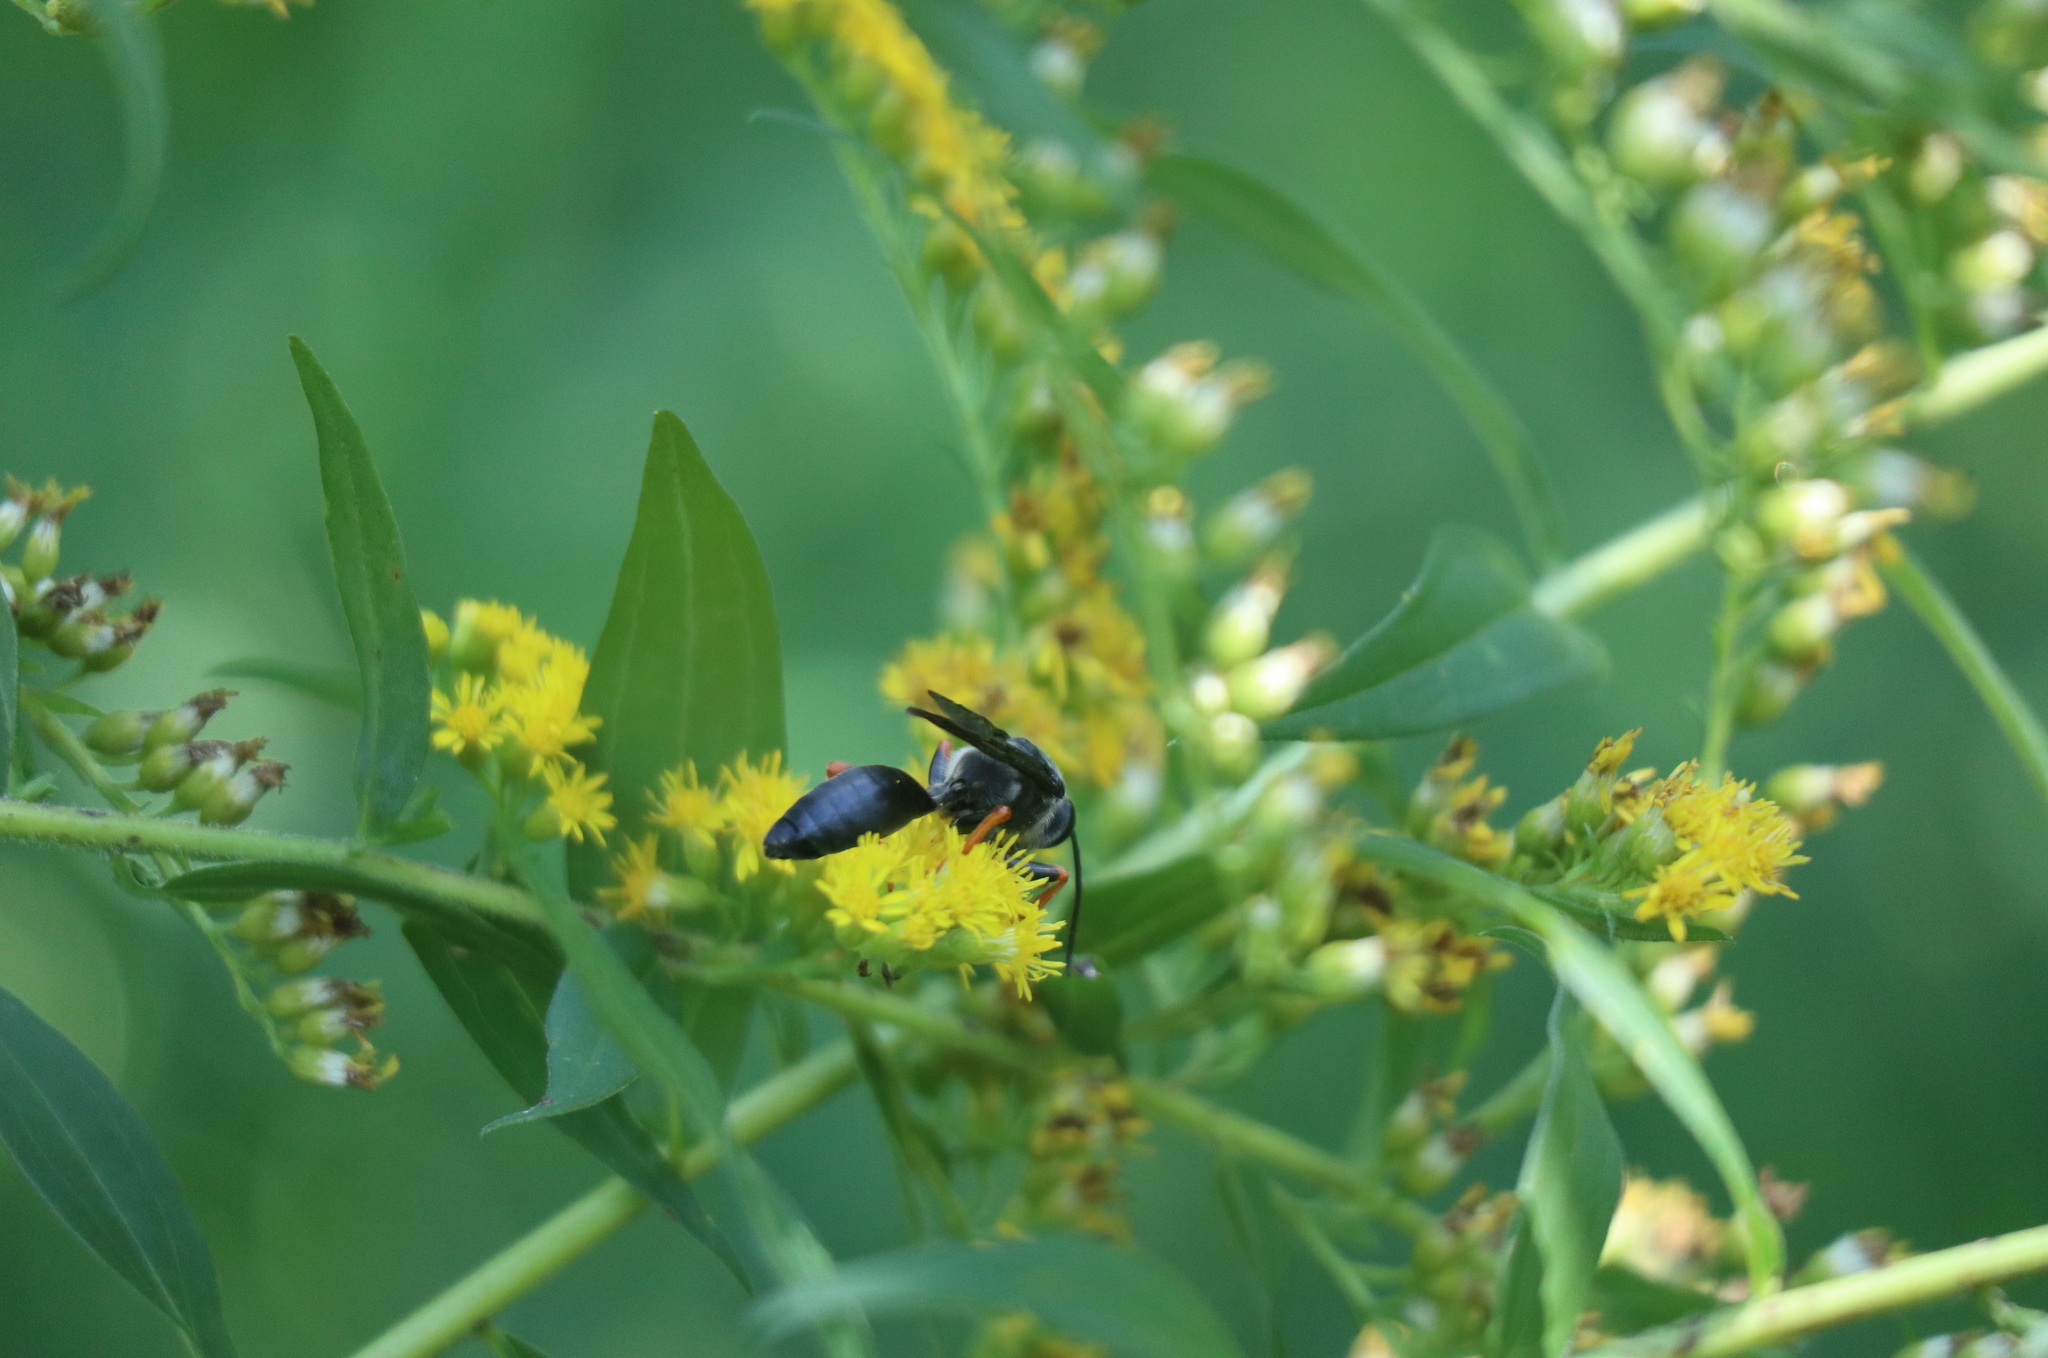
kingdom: Animalia
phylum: Arthropoda
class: Insecta
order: Hymenoptera
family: Sphecidae
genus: Sphex
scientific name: Sphex nudus
